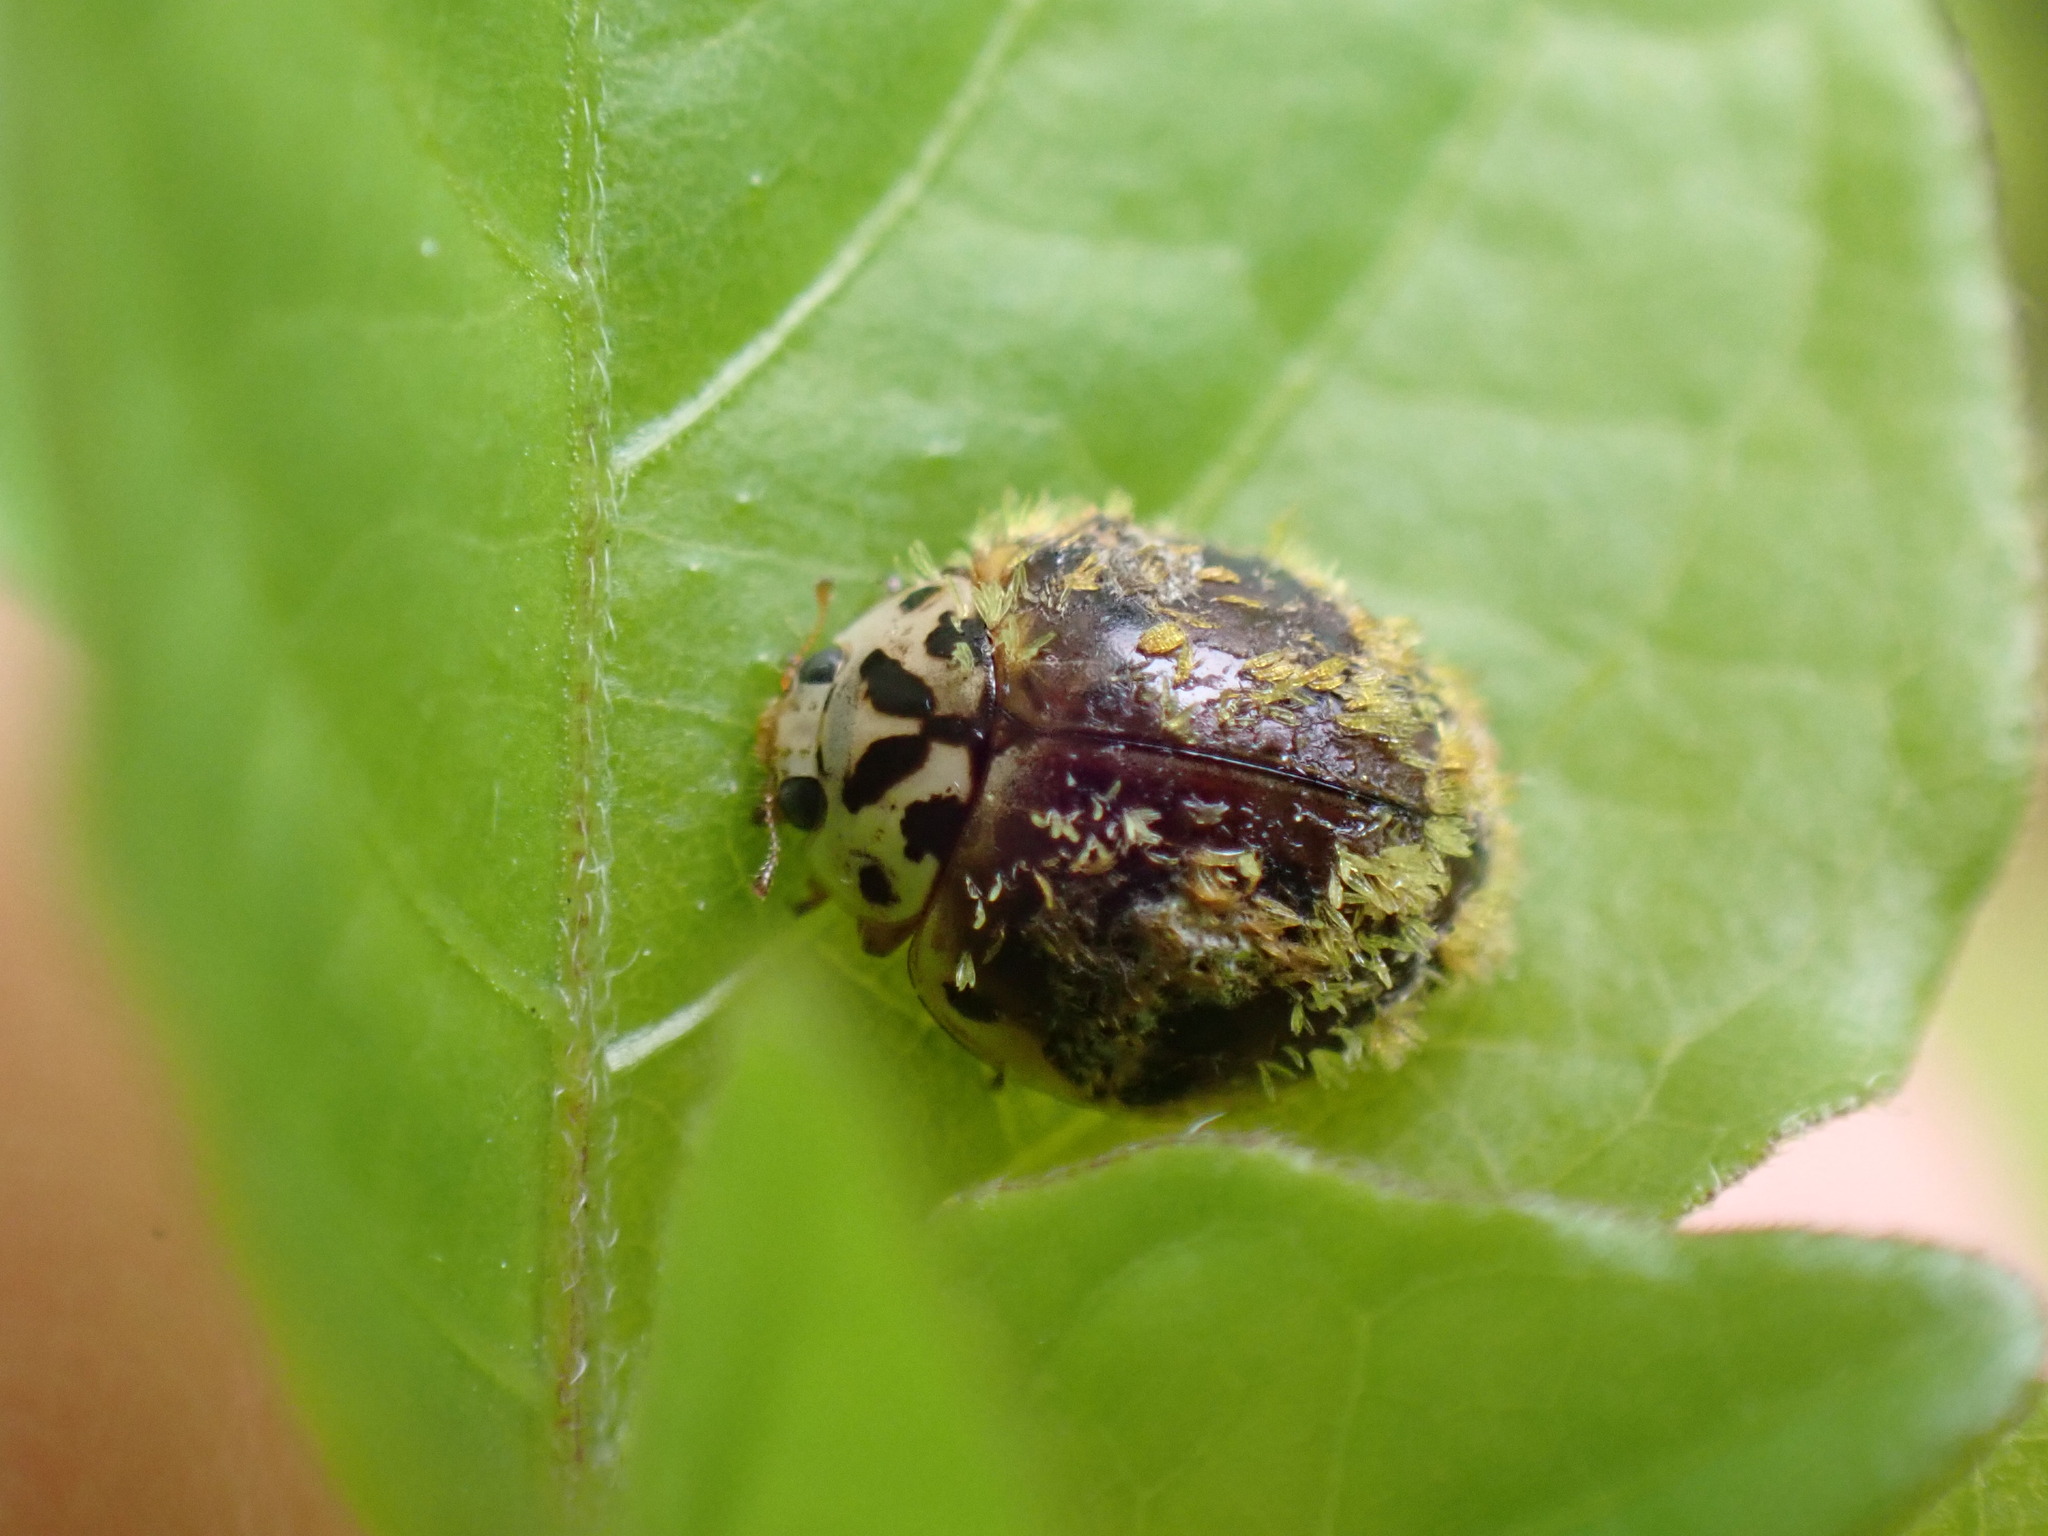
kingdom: Animalia
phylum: Arthropoda
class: Insecta
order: Coleoptera
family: Coccinellidae
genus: Olla
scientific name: Olla v-nigrum
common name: Ashy gray lady beetle
